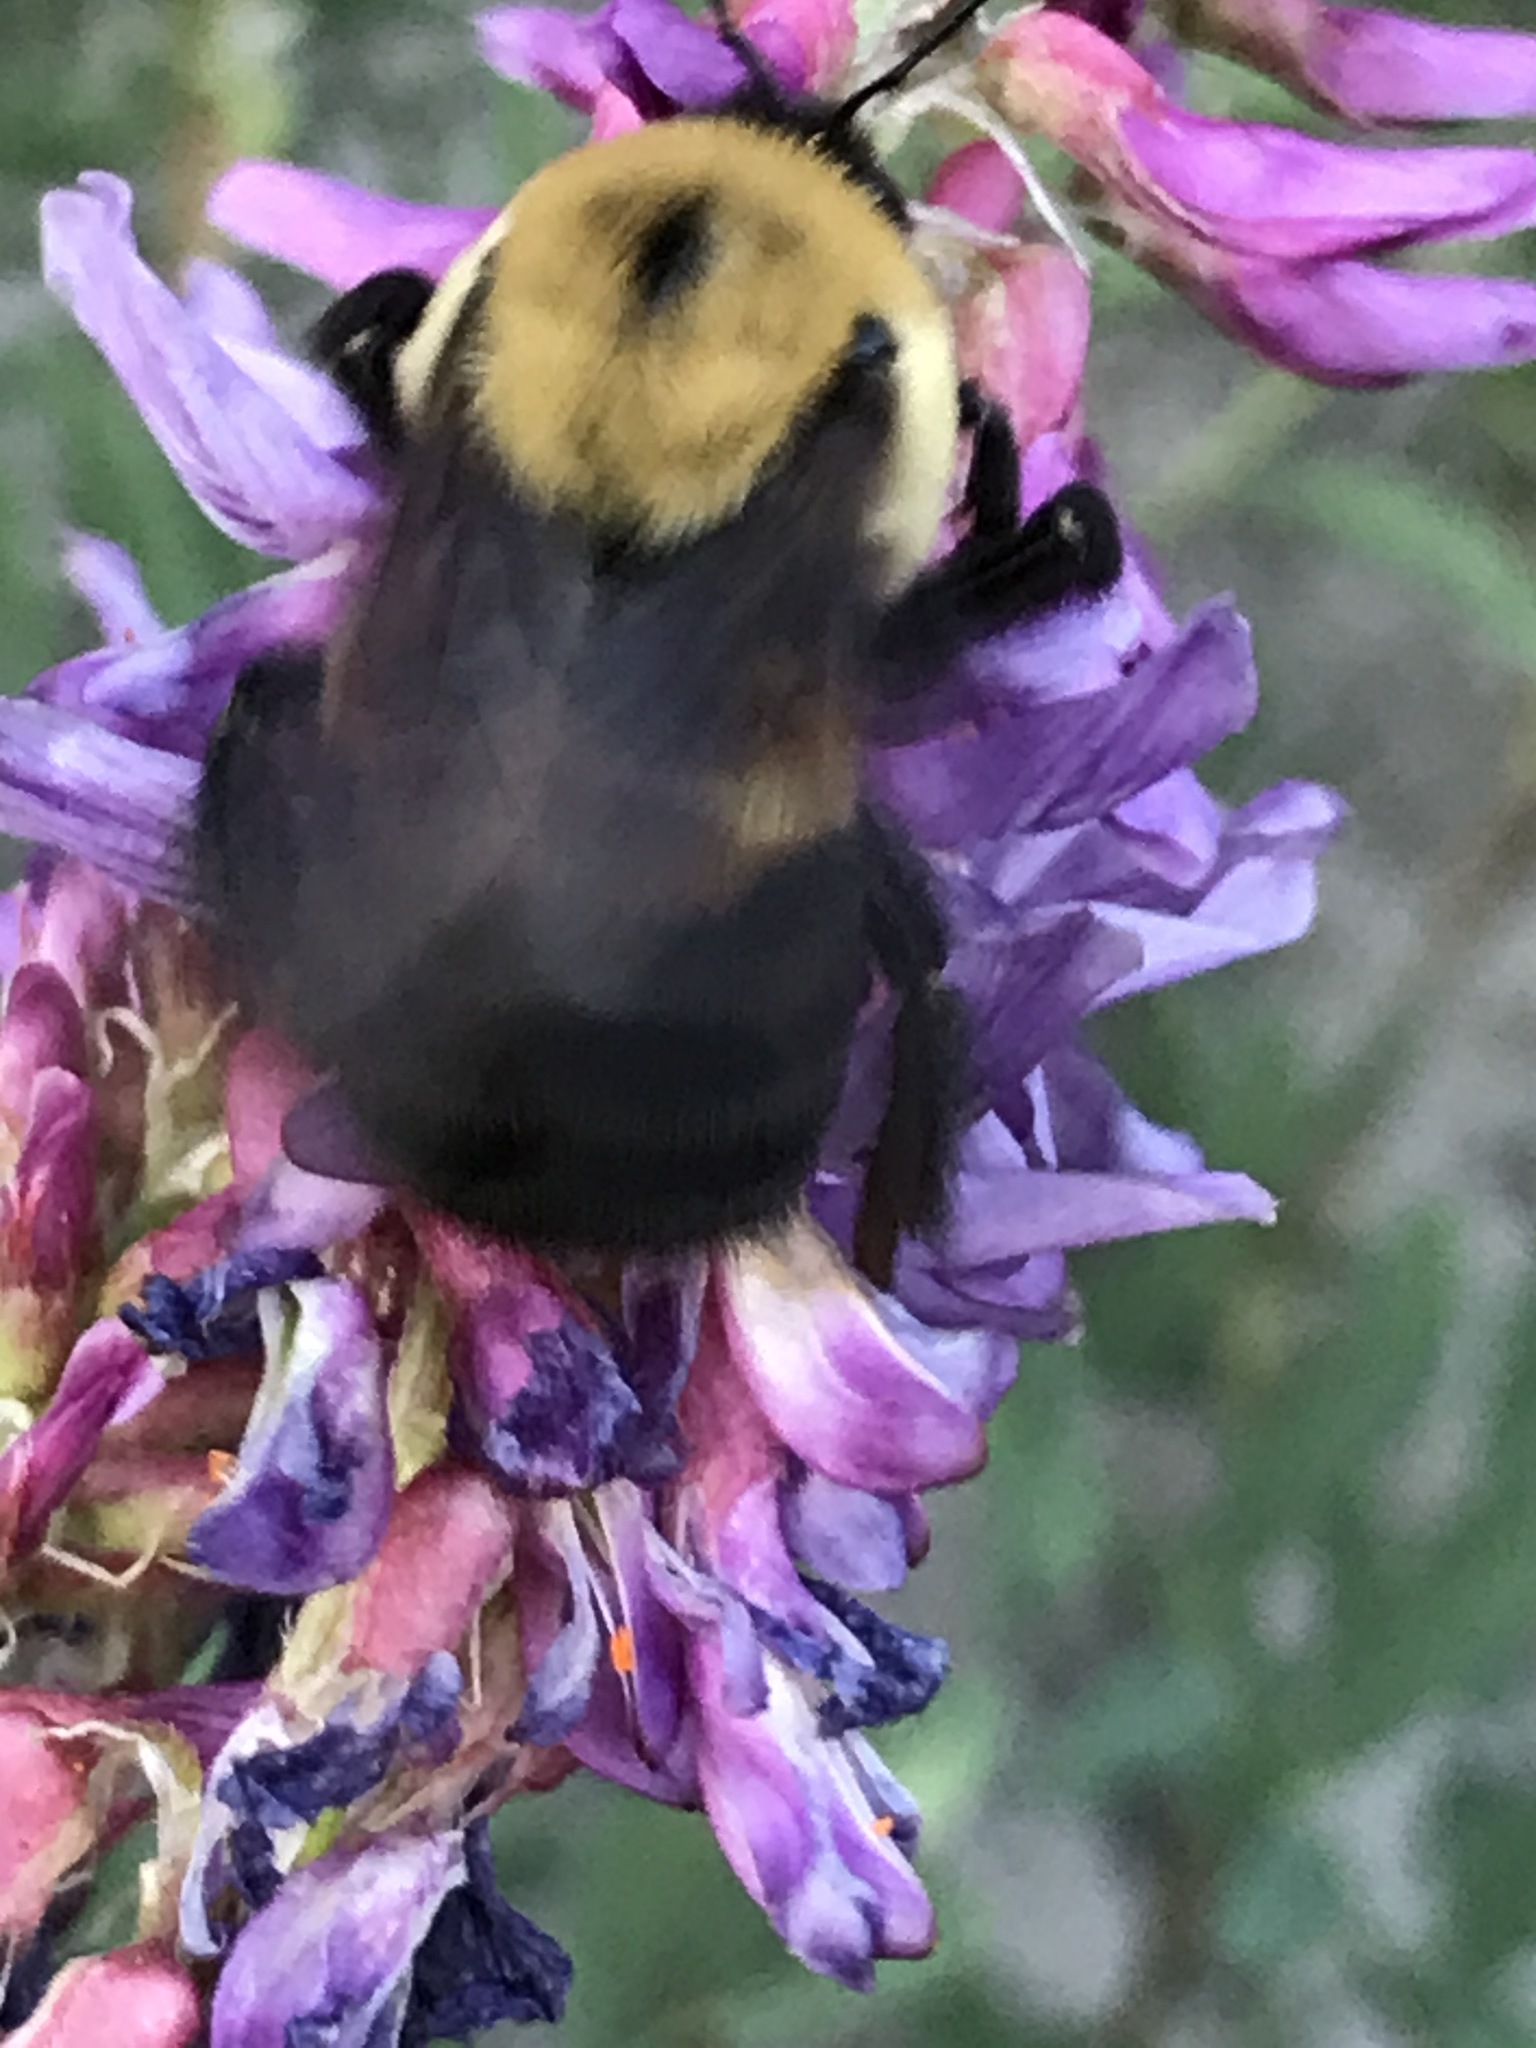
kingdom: Animalia
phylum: Arthropoda
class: Insecta
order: Hymenoptera
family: Apidae
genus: Bombus
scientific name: Bombus griseocollis
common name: Brown-belted bumble bee
